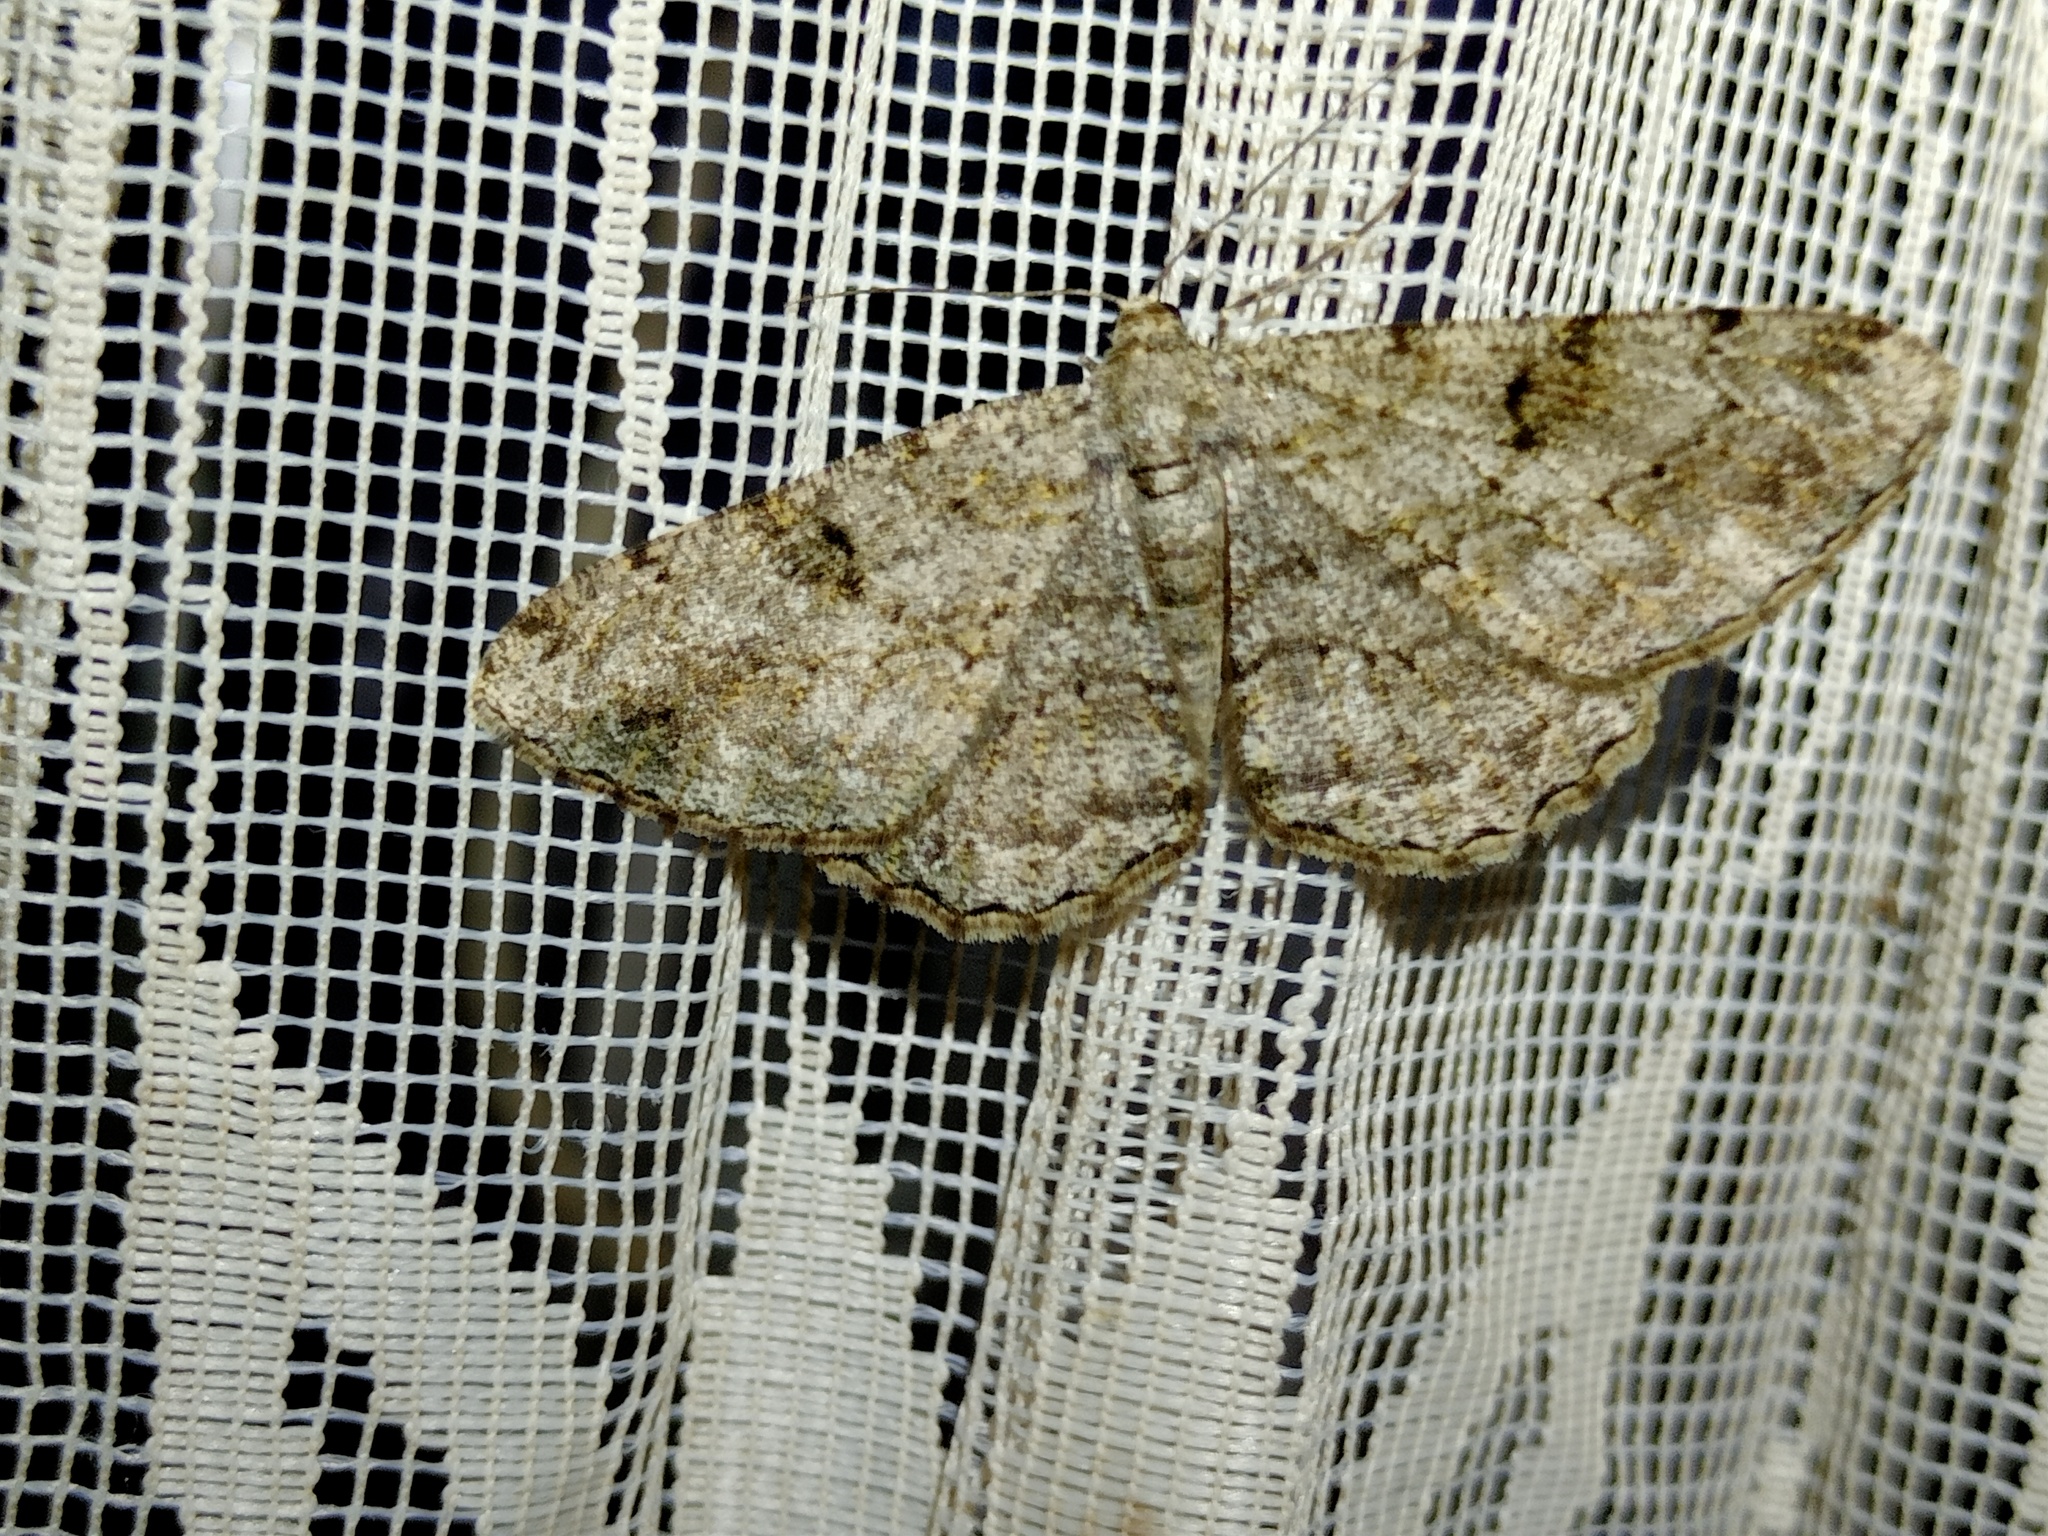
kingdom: Animalia
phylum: Arthropoda
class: Insecta
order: Lepidoptera
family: Geometridae
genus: Peribatodes
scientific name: Peribatodes rhomboidaria
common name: Willow beauty
